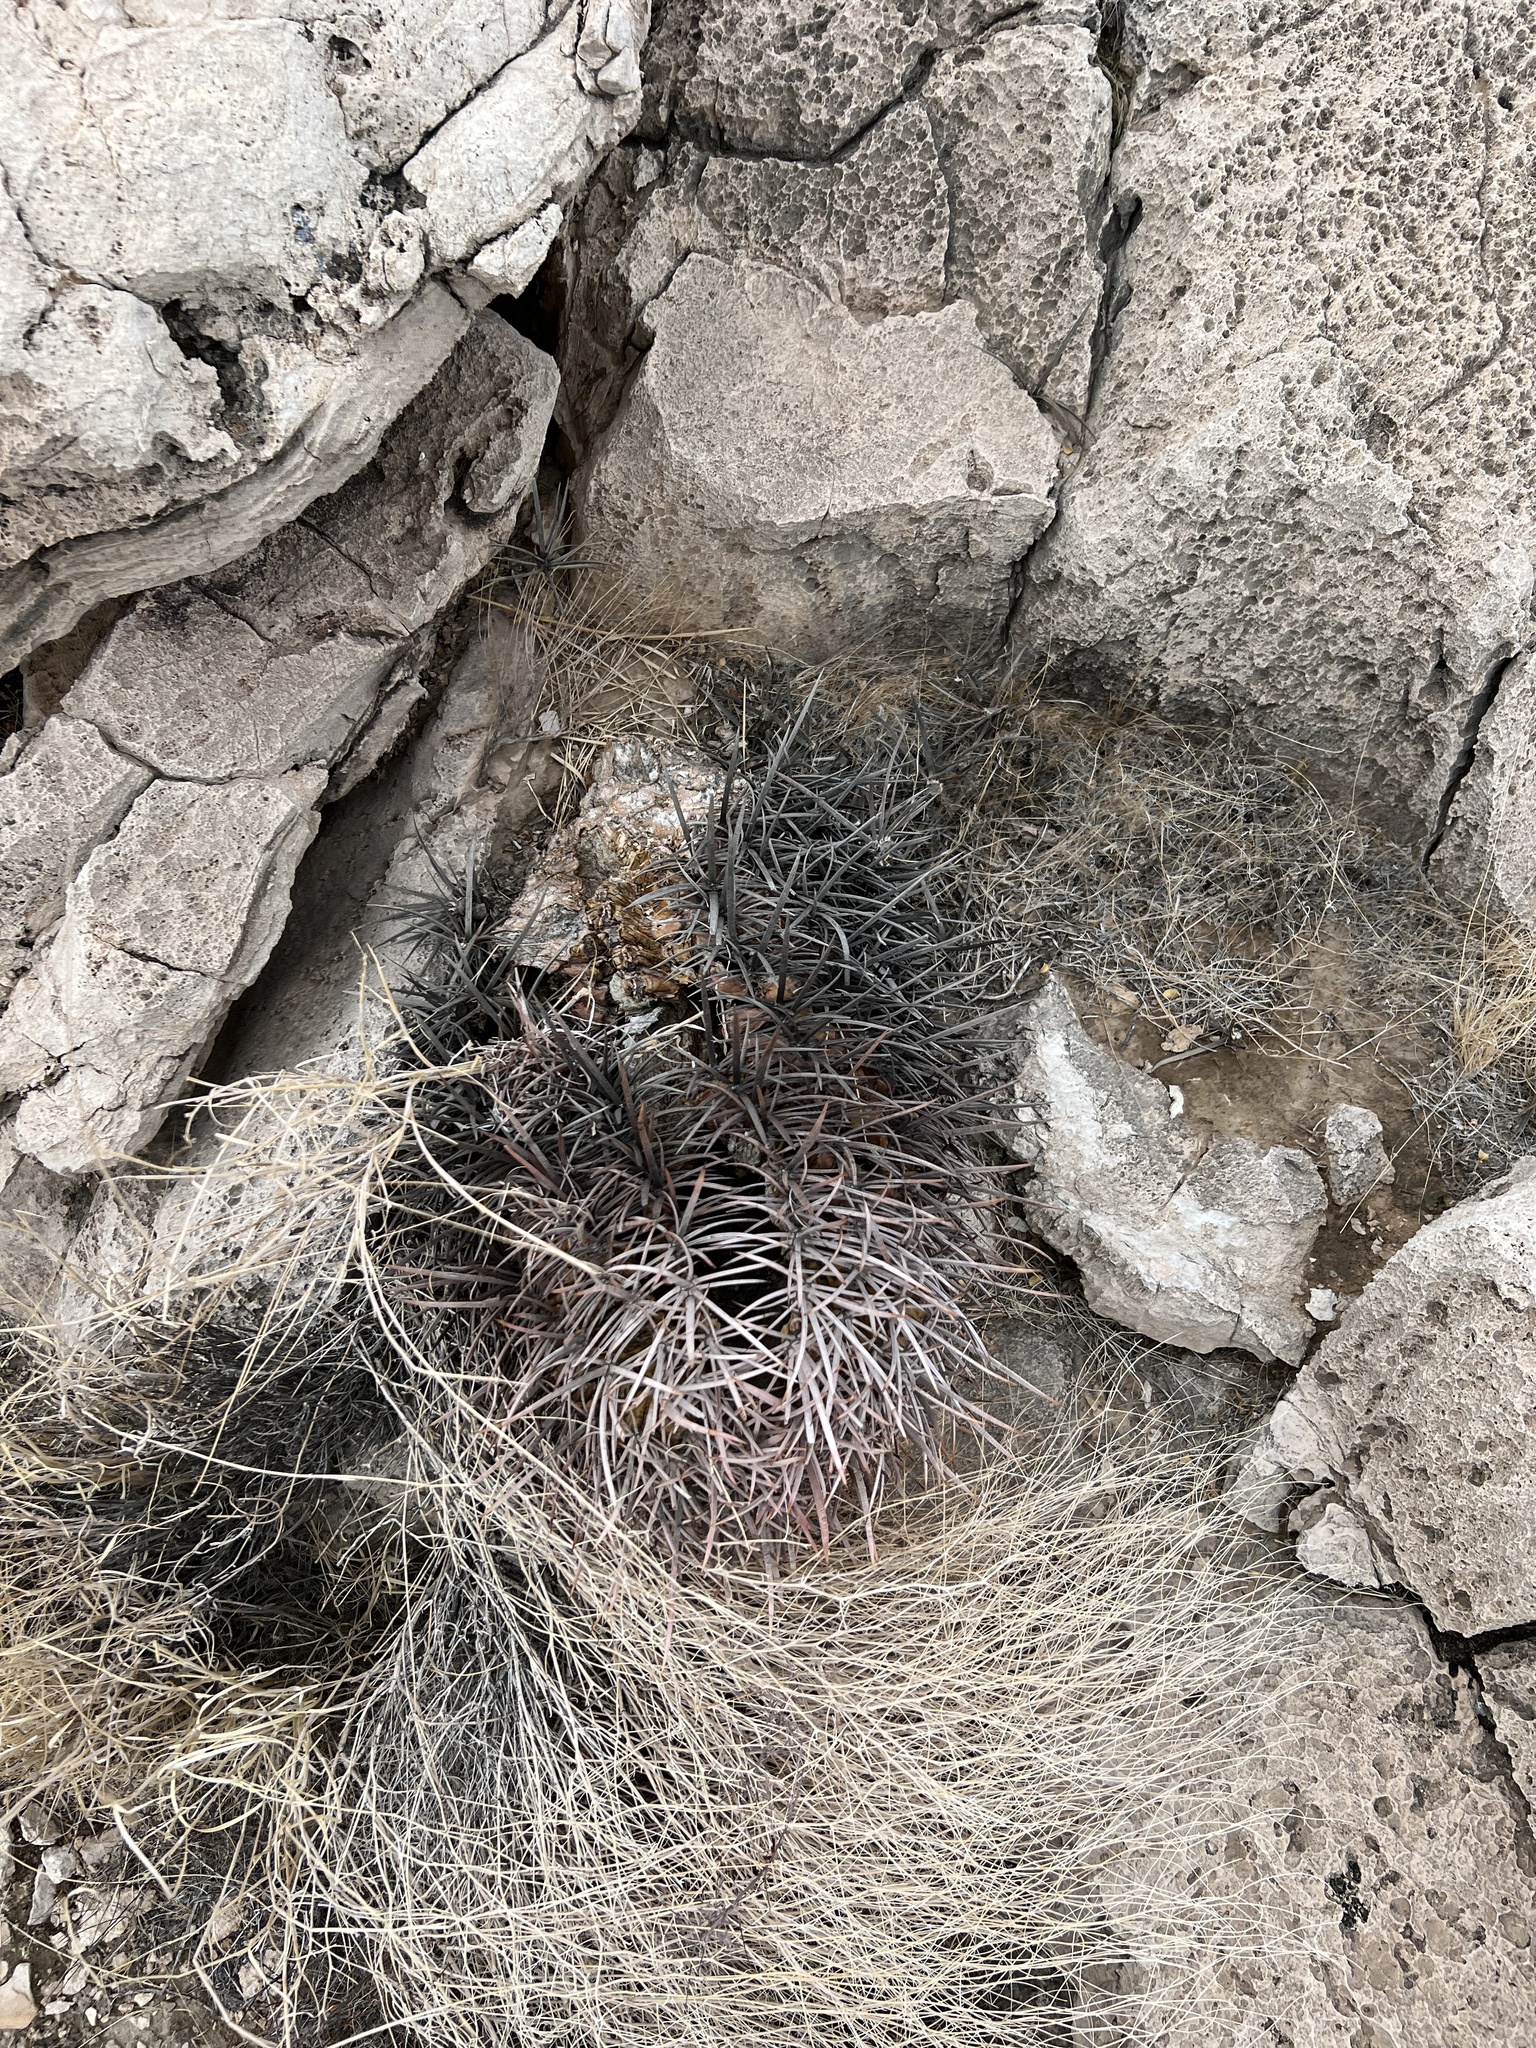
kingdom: Plantae
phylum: Tracheophyta
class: Magnoliopsida
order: Caryophyllales
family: Cactaceae
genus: Echinocactus
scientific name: Echinocactus polycephalus
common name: Cottontop cactus
